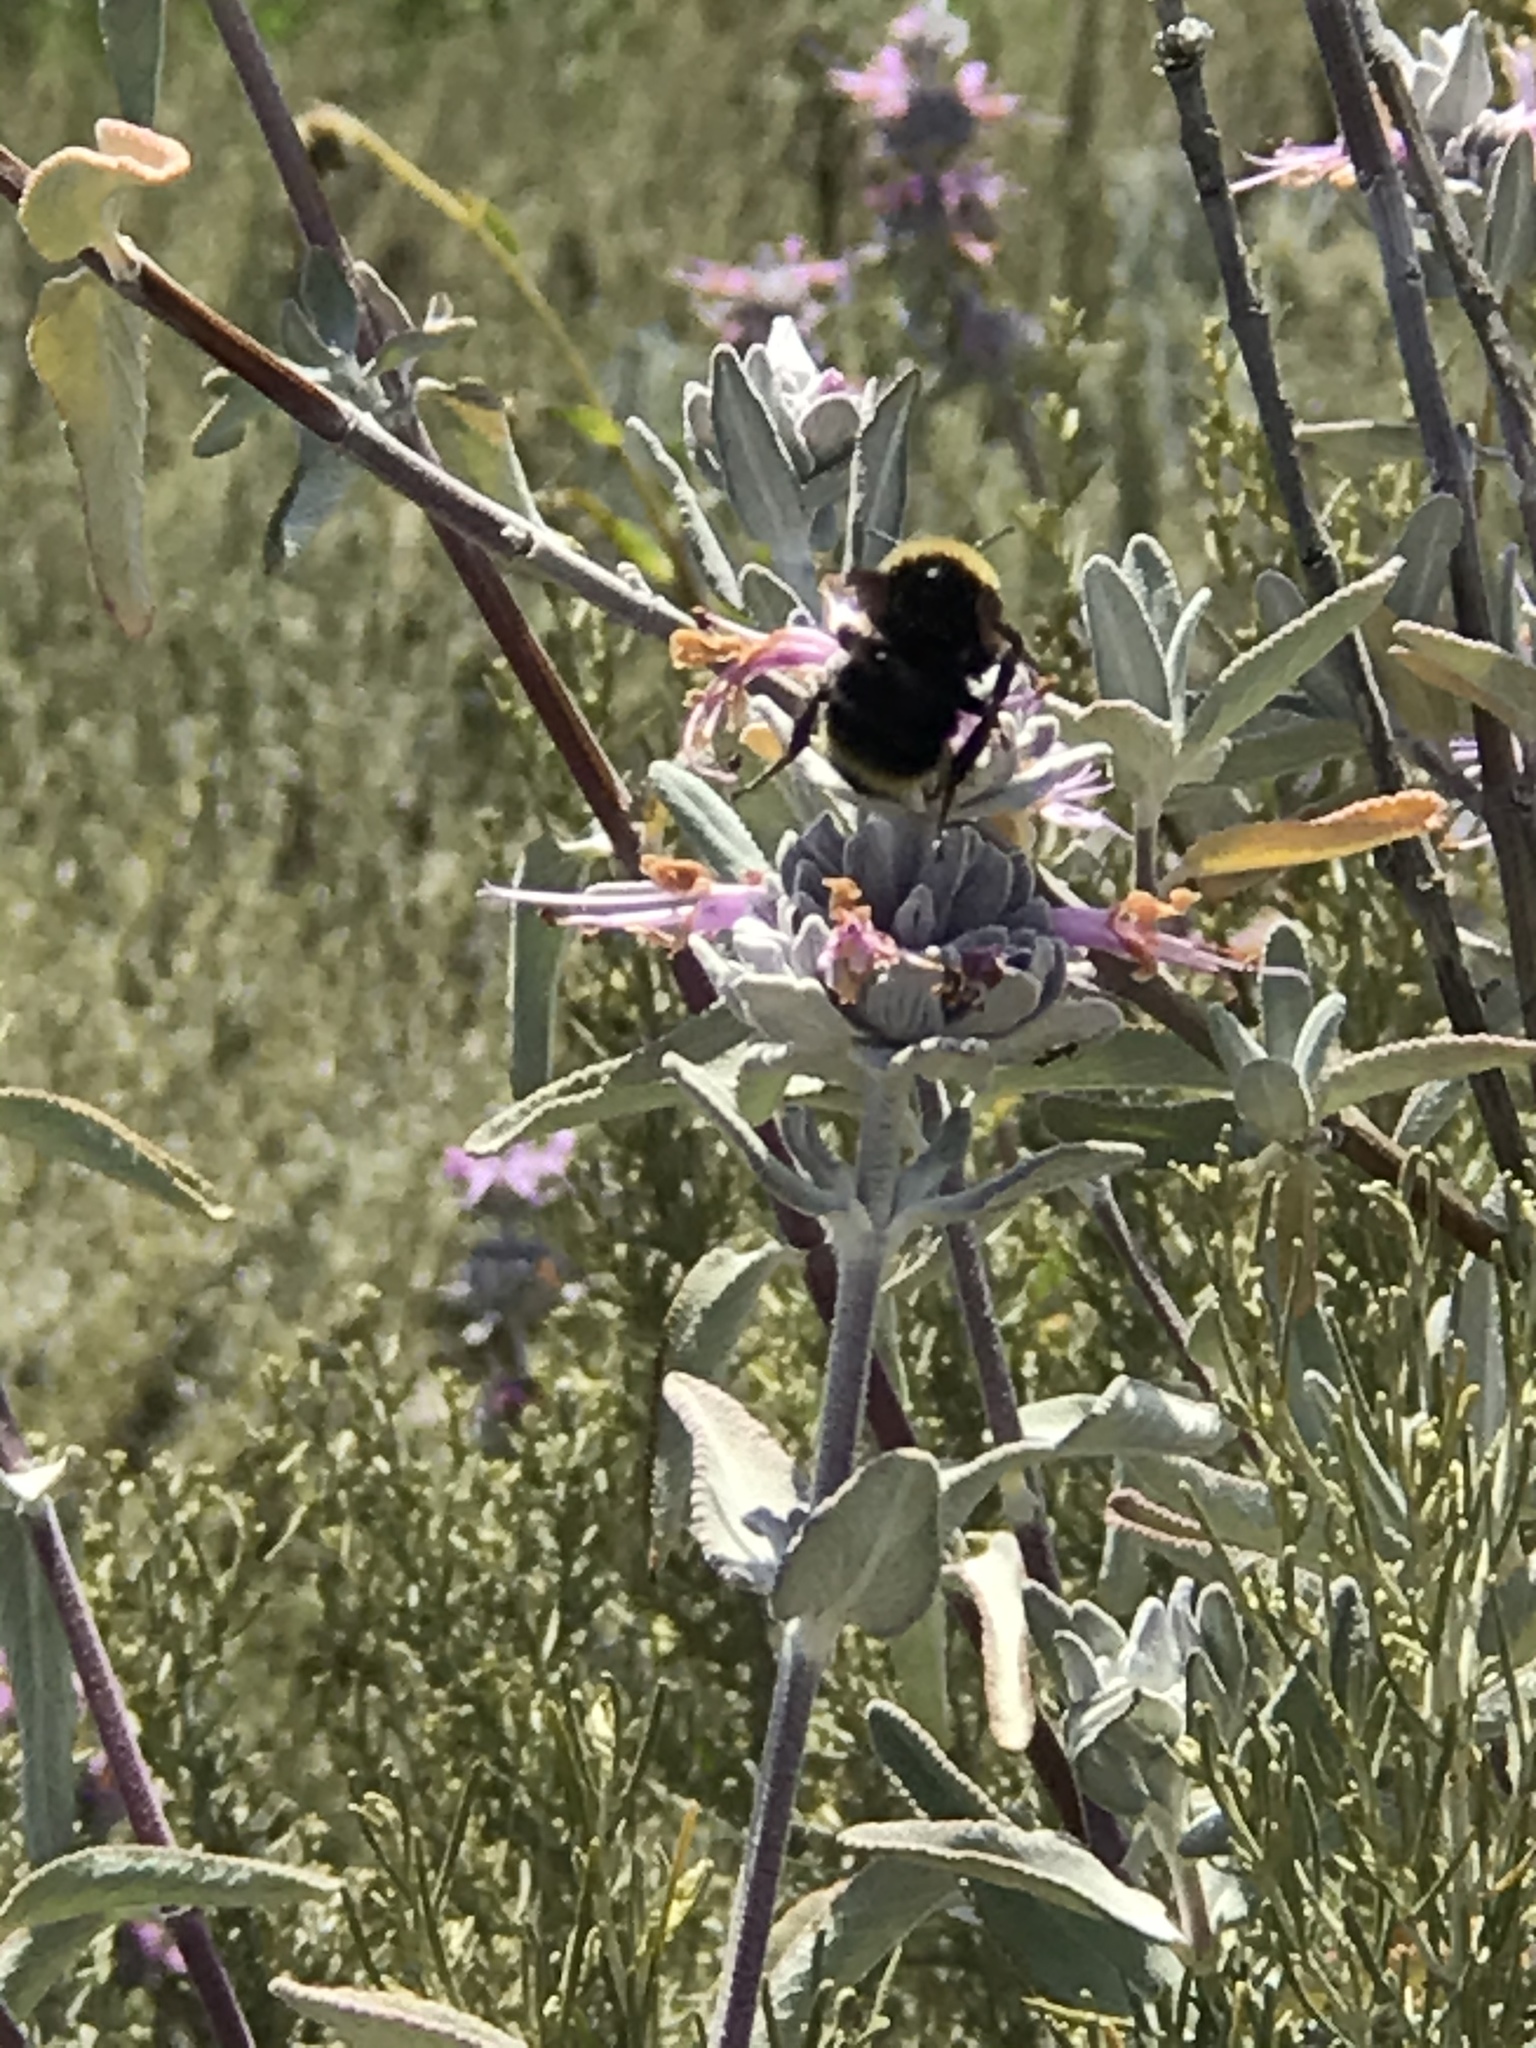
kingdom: Animalia
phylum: Arthropoda
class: Insecta
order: Hymenoptera
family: Apidae
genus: Bombus
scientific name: Bombus californicus
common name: California bumble bee
